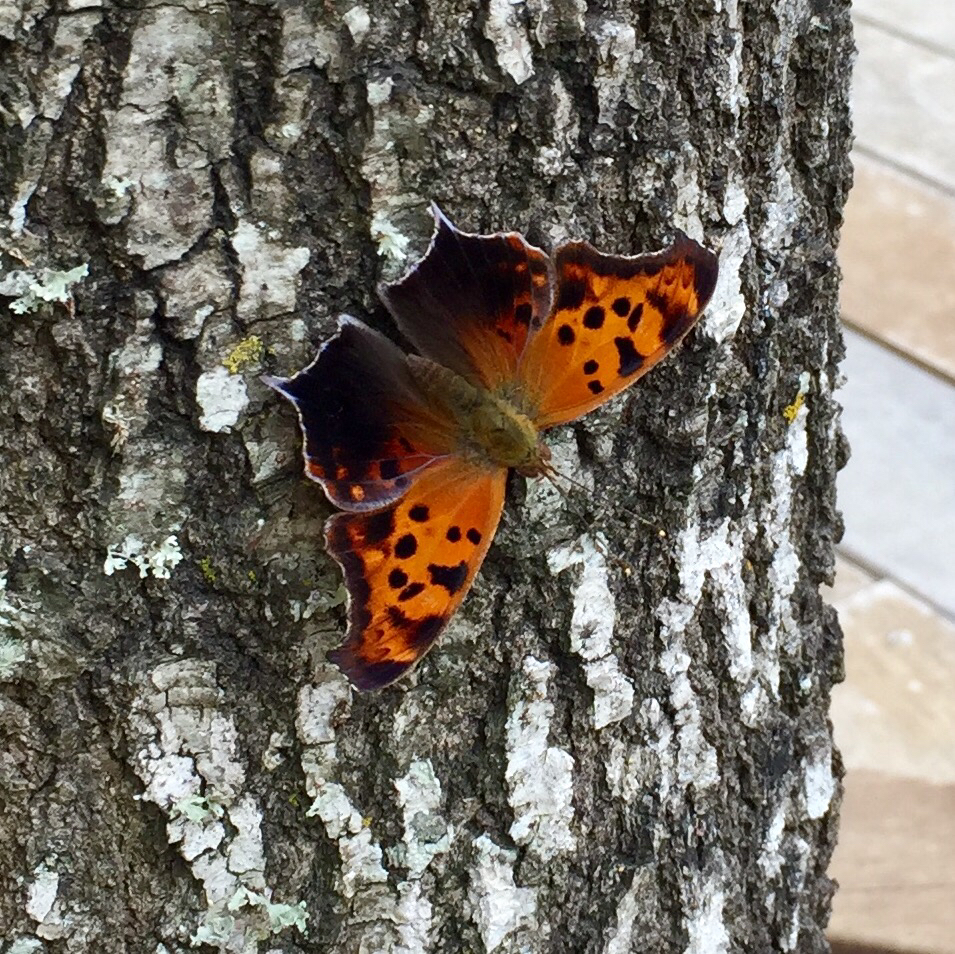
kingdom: Animalia
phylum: Arthropoda
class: Insecta
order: Lepidoptera
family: Nymphalidae
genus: Polygonia
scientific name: Polygonia interrogationis
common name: Question mark
